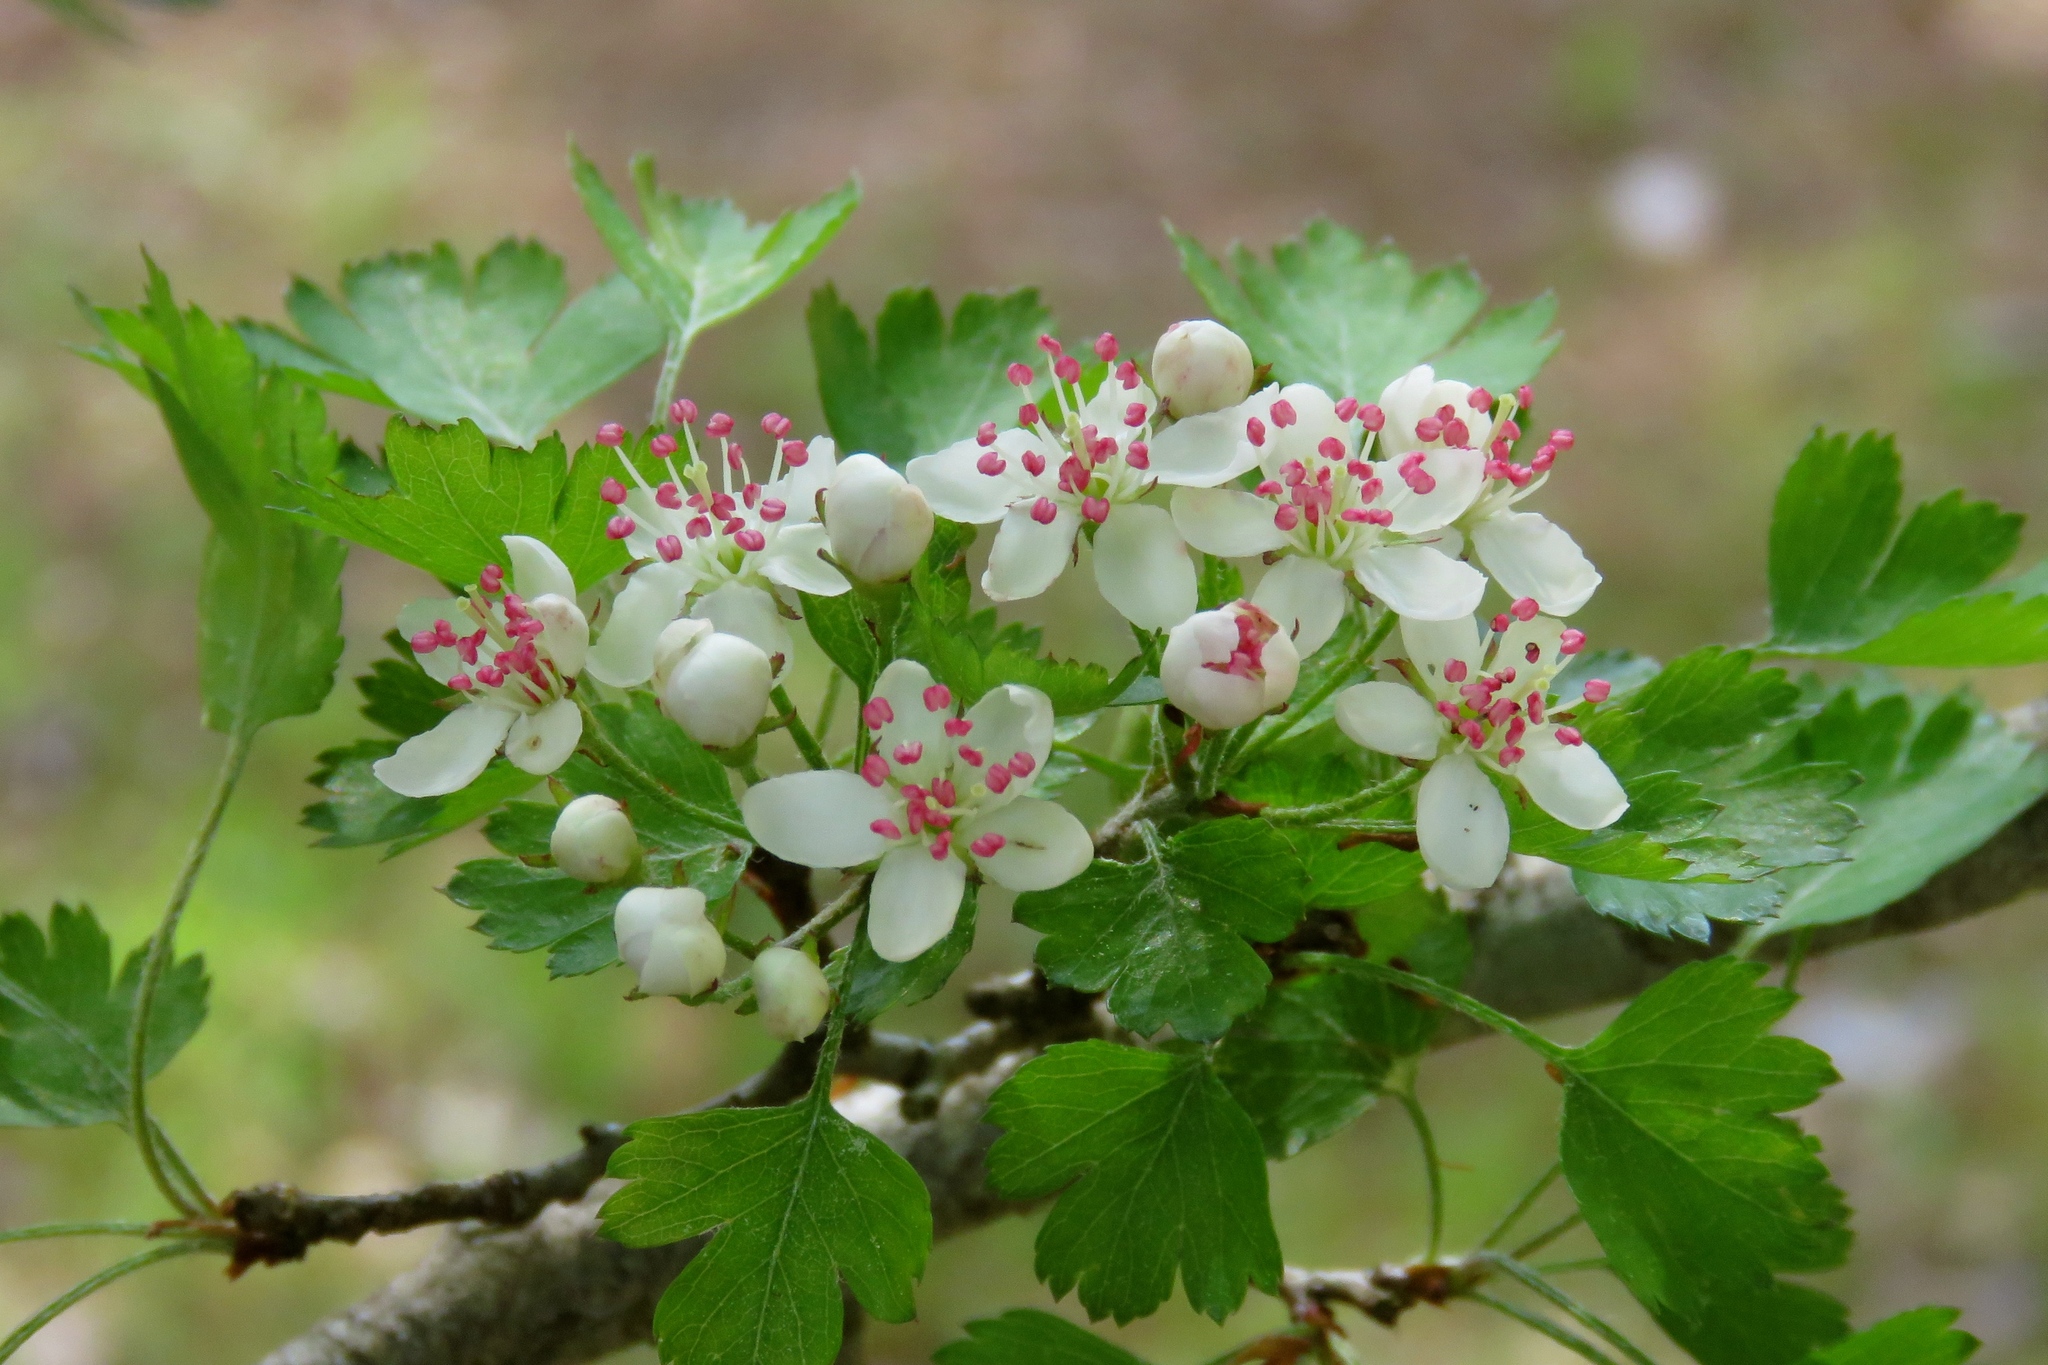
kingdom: Plantae
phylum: Tracheophyta
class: Magnoliopsida
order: Rosales
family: Rosaceae
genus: Crataegus
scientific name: Crataegus marshallii
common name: Parsley-hawthorn
